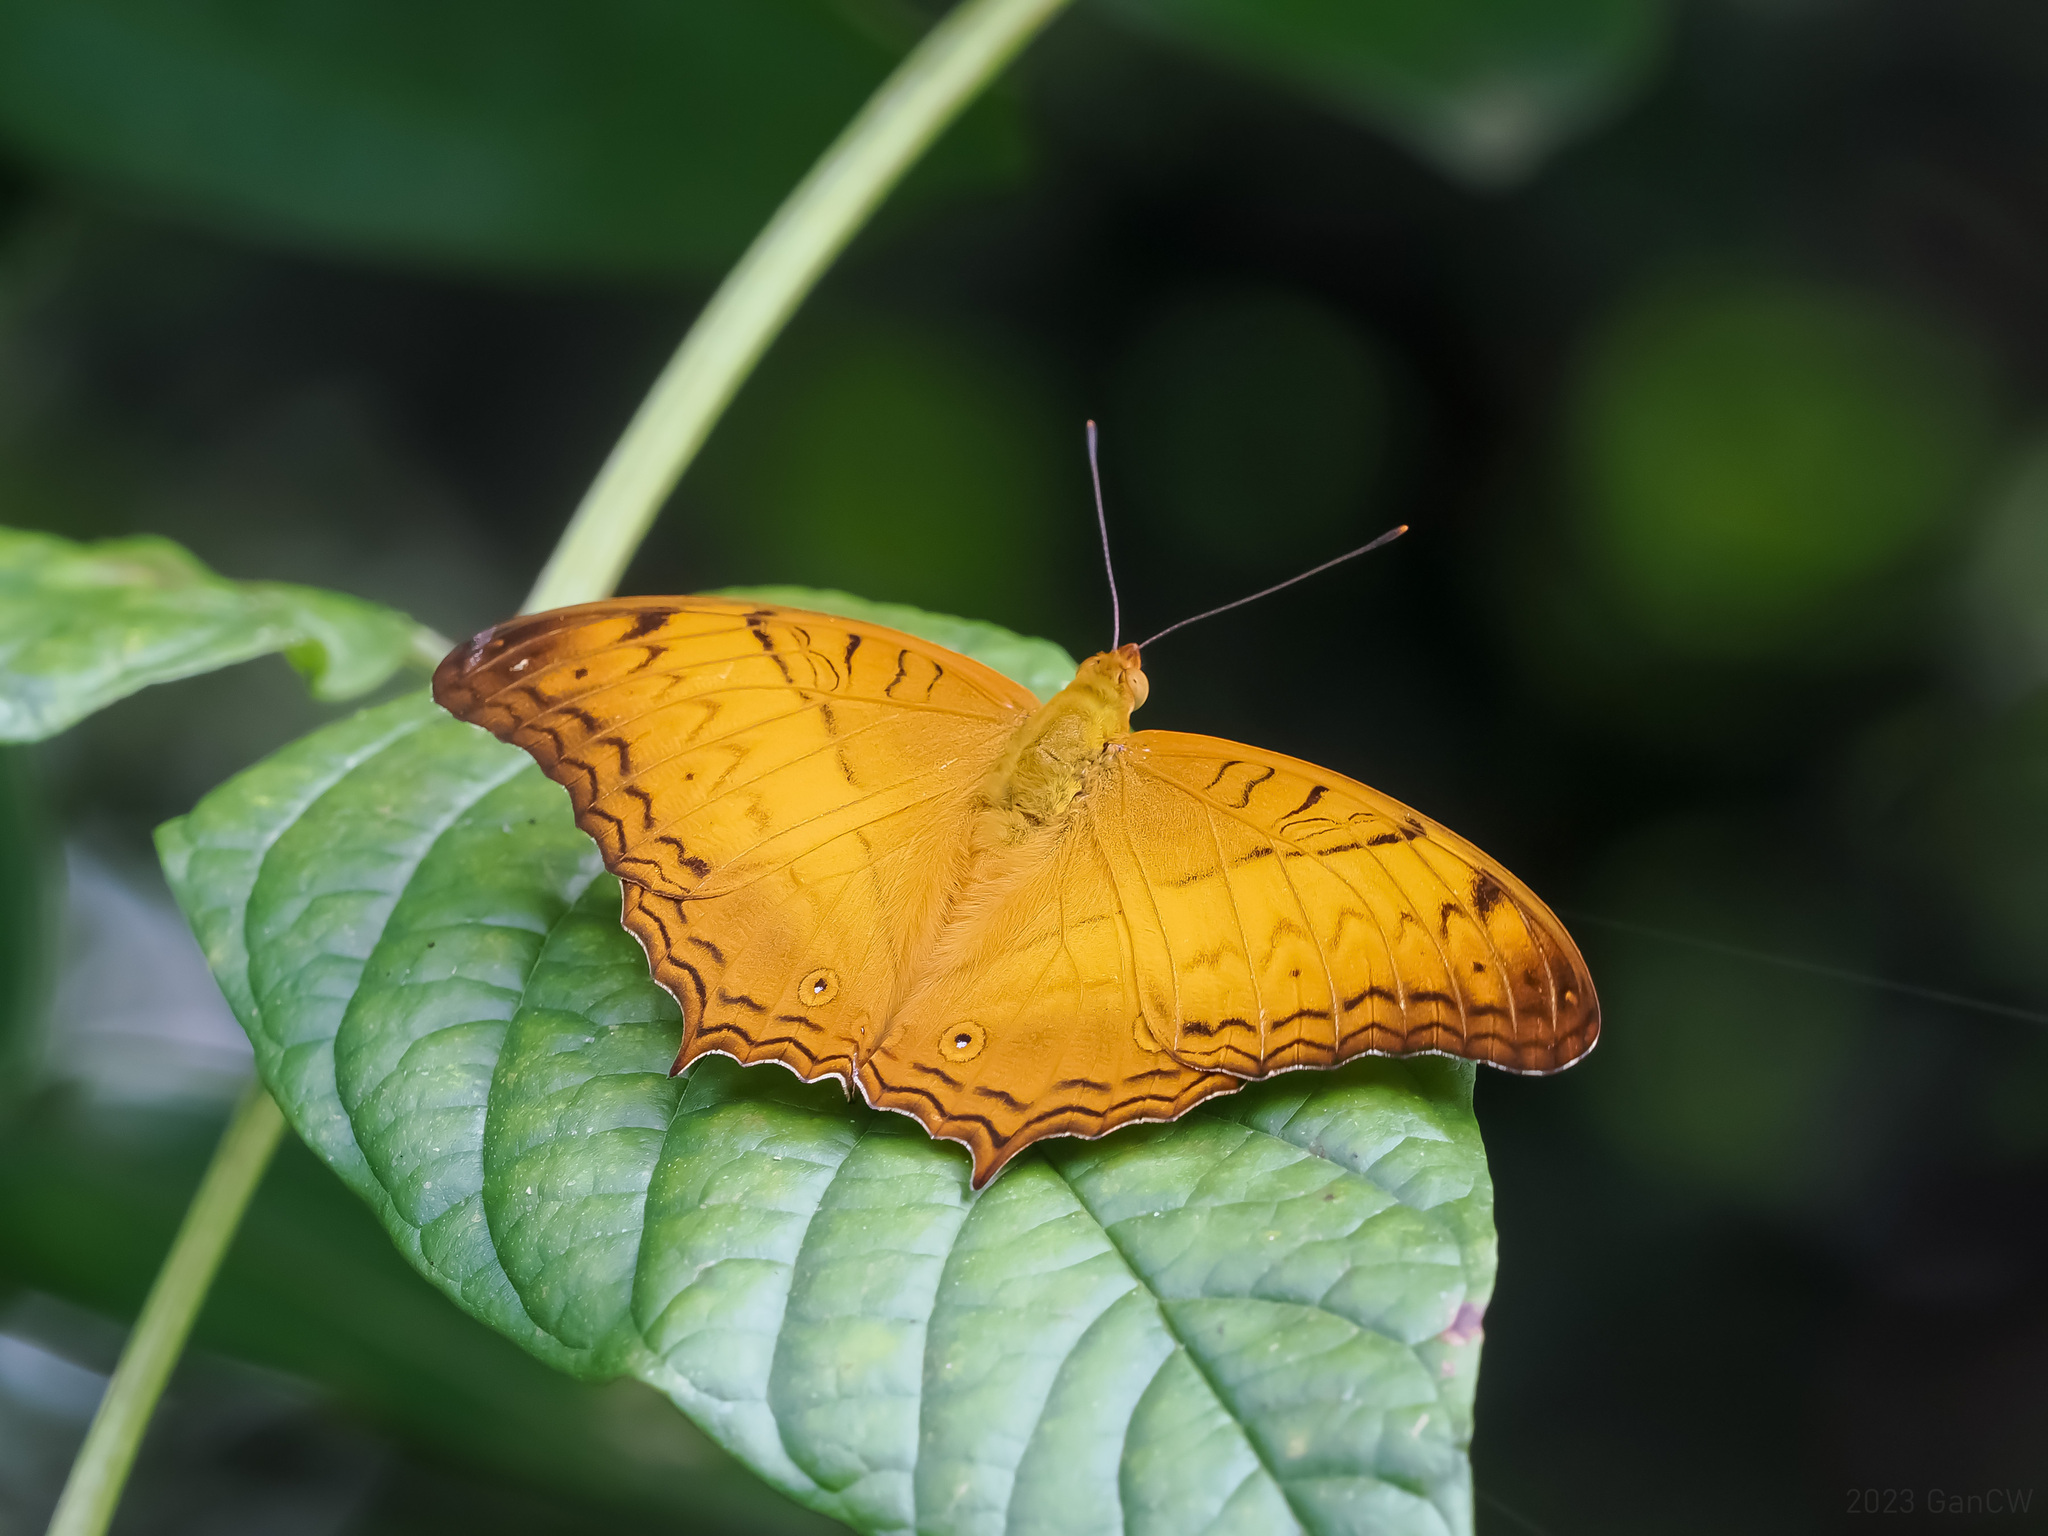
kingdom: Animalia
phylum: Arthropoda
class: Insecta
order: Lepidoptera
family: Nymphalidae
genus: Vindula
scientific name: Vindula deione
